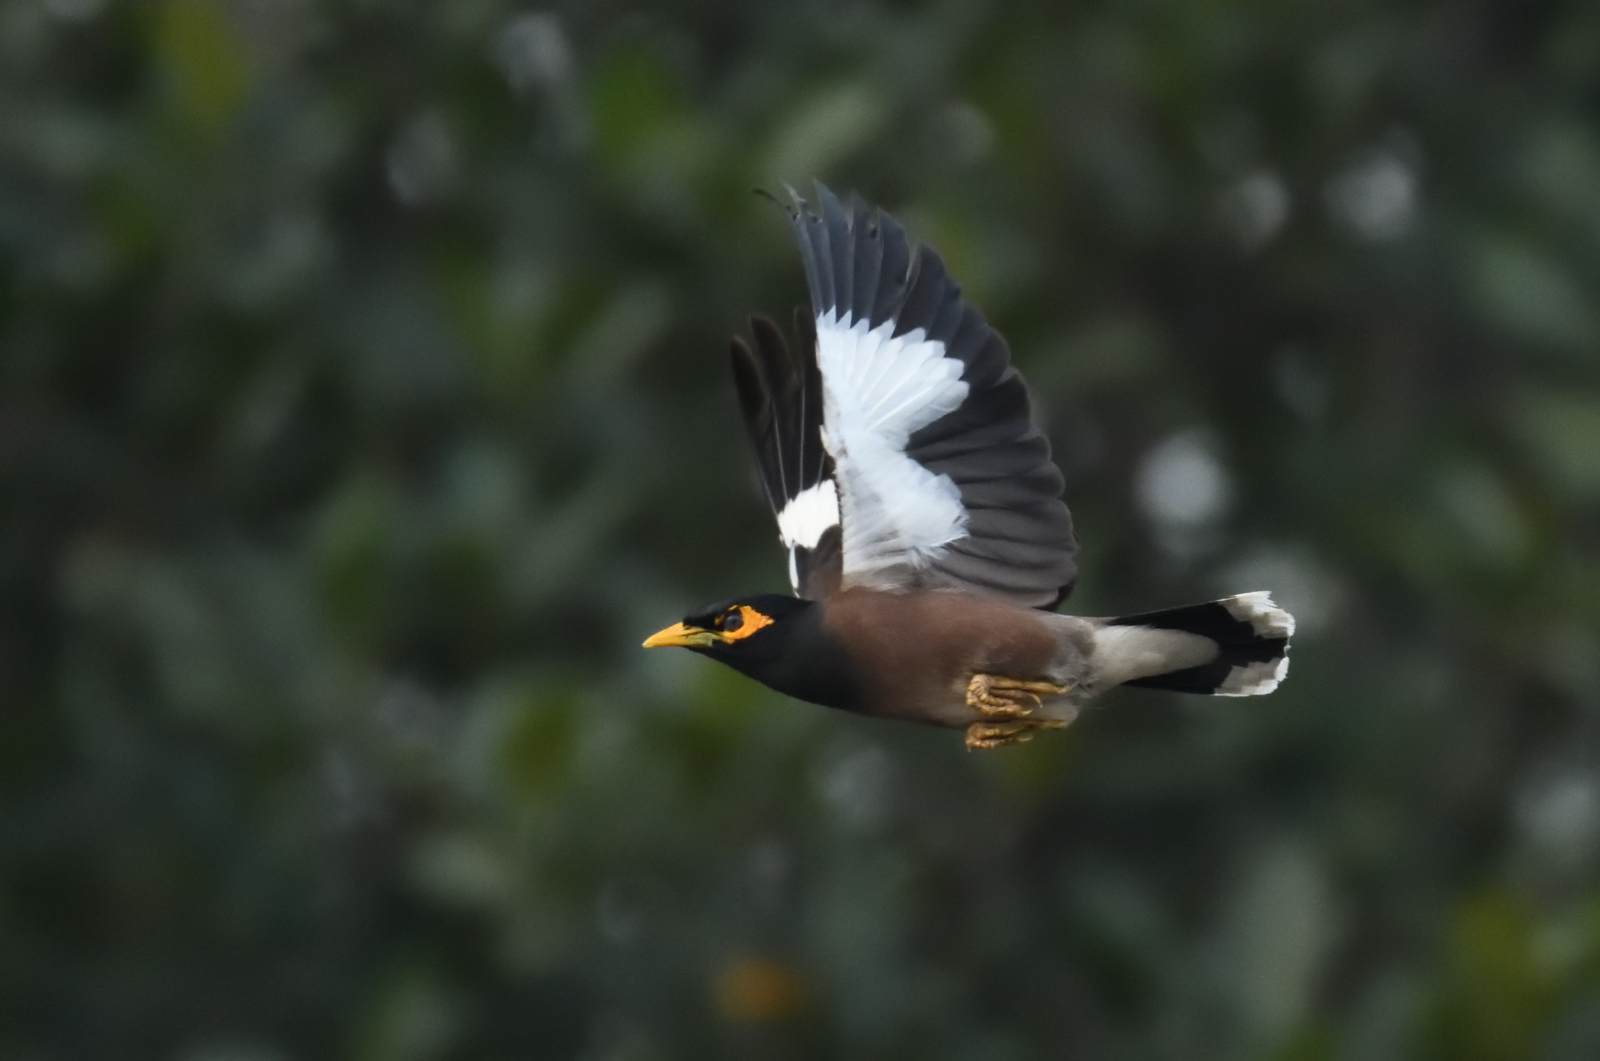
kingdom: Animalia
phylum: Chordata
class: Aves
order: Passeriformes
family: Sturnidae
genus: Acridotheres
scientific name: Acridotheres tristis
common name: Common myna
